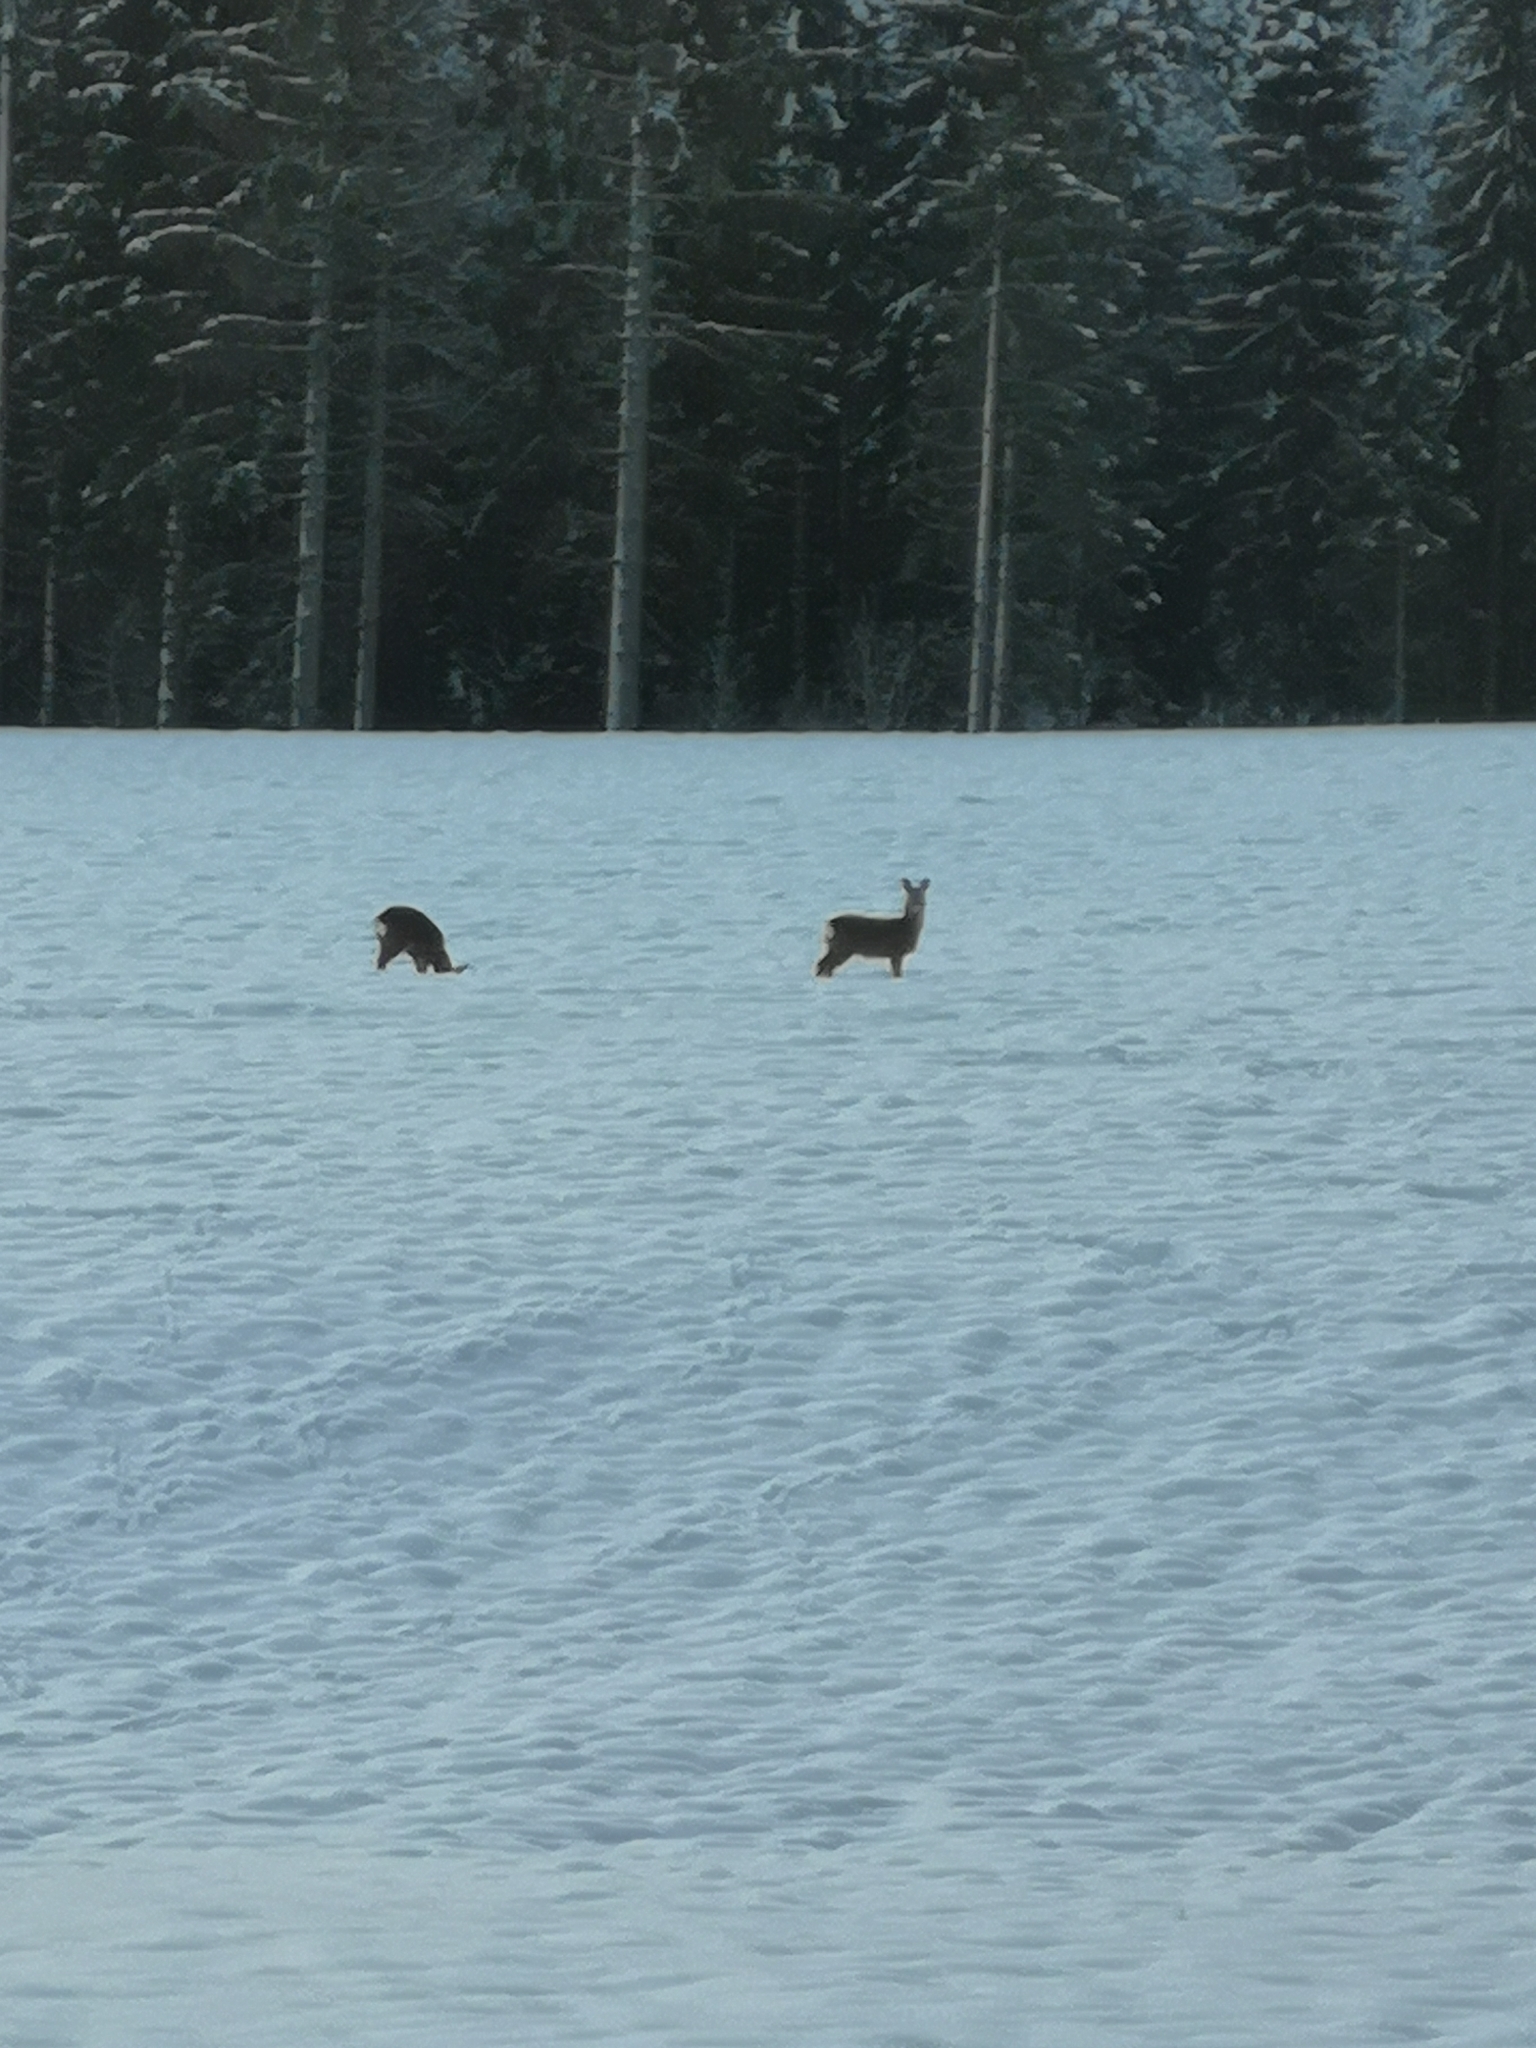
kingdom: Animalia
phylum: Chordata
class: Mammalia
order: Artiodactyla
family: Cervidae
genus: Capreolus
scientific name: Capreolus capreolus
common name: Western roe deer
